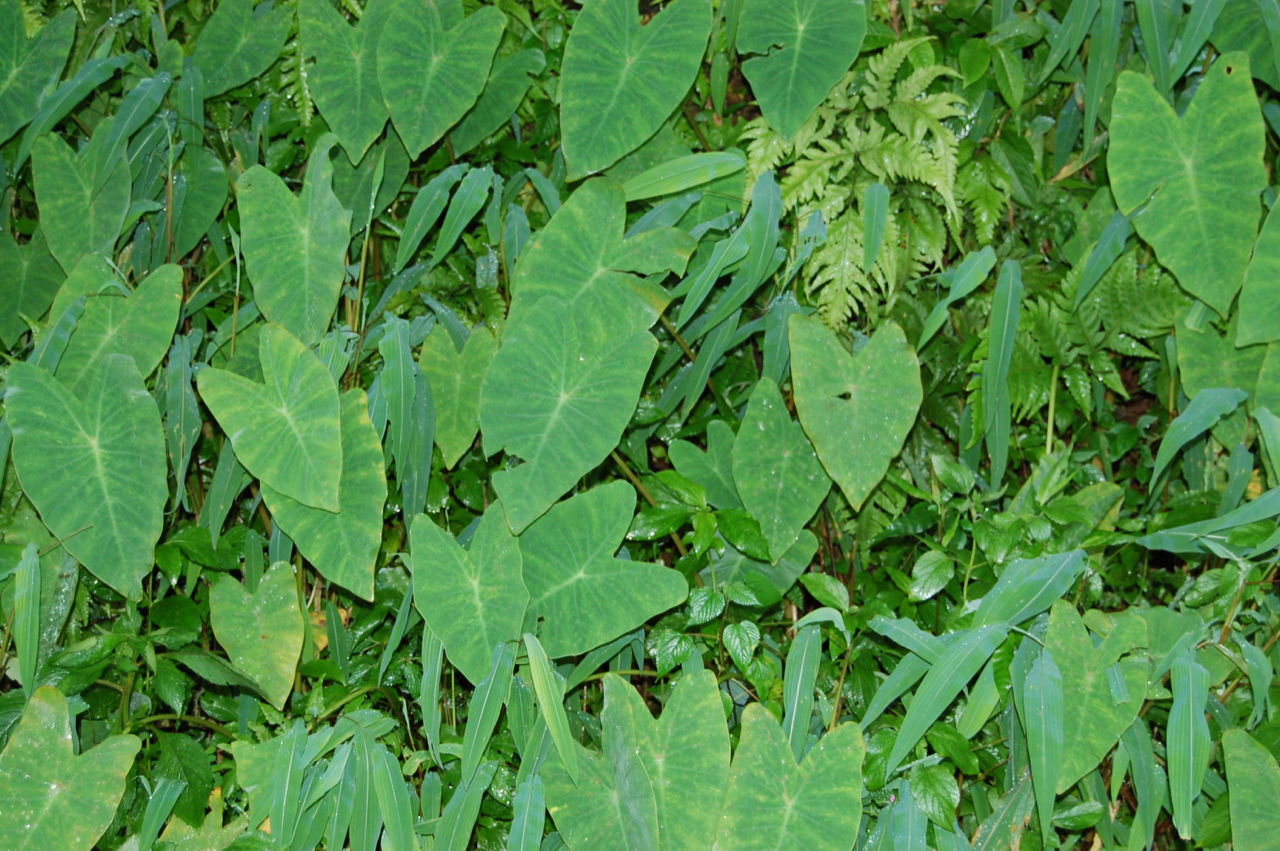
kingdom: Plantae
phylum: Tracheophyta
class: Liliopsida
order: Alismatales
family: Araceae
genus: Colocasia
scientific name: Colocasia esculenta
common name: Taro
